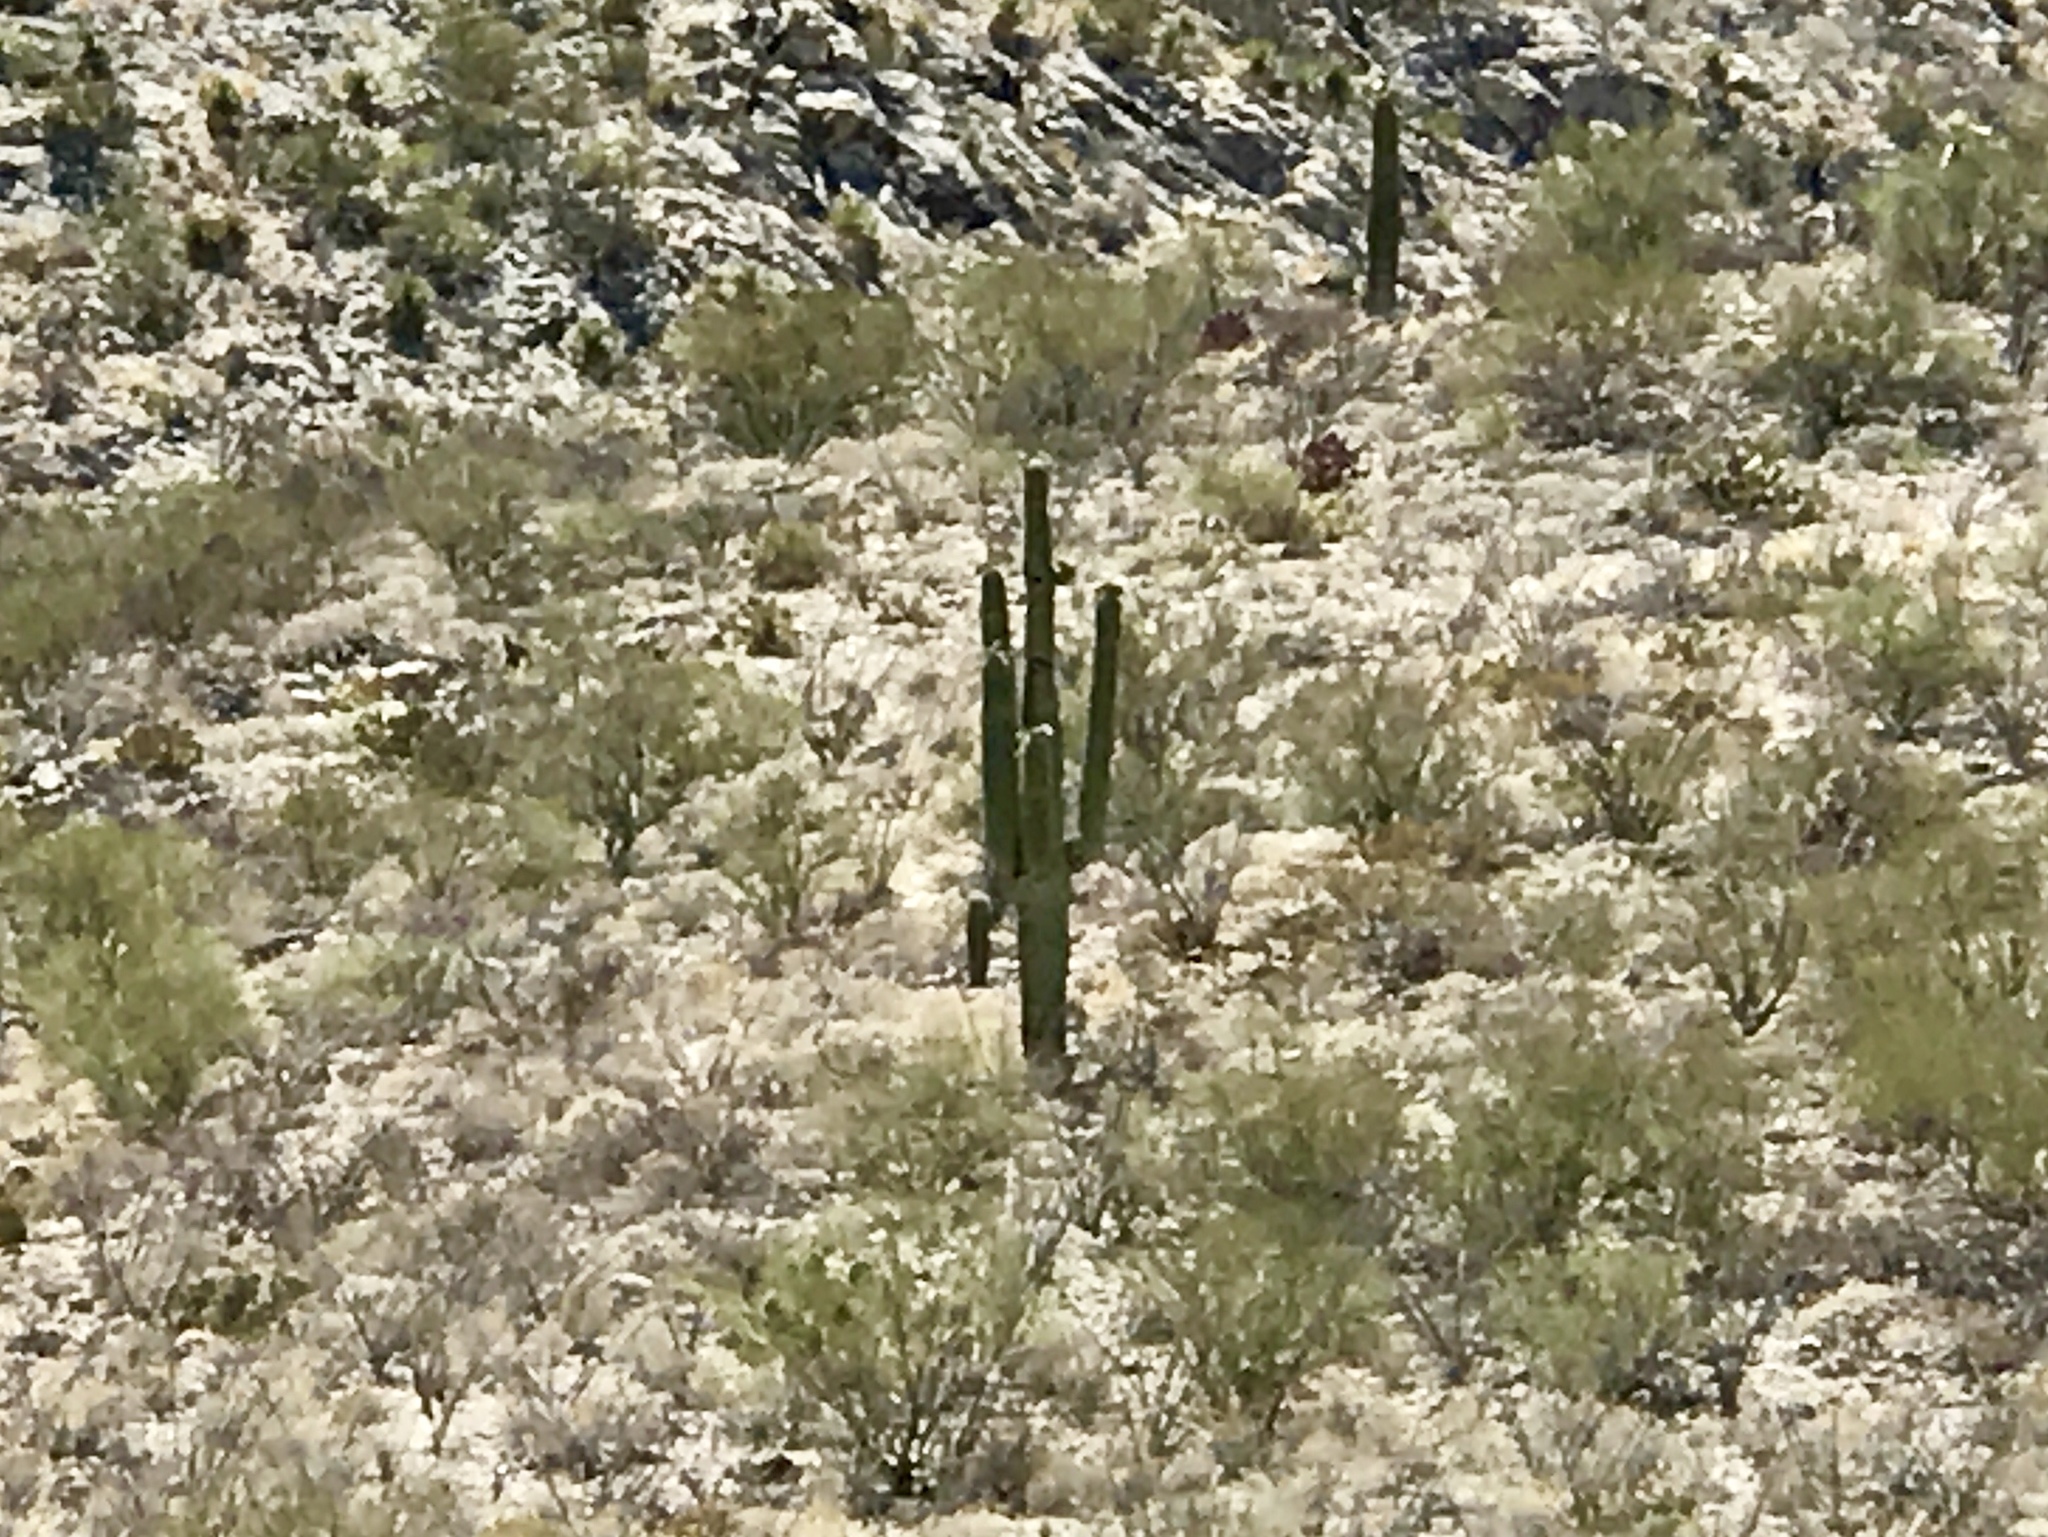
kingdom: Plantae
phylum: Tracheophyta
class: Magnoliopsida
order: Caryophyllales
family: Cactaceae
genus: Carnegiea
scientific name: Carnegiea gigantea
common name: Saguaro
